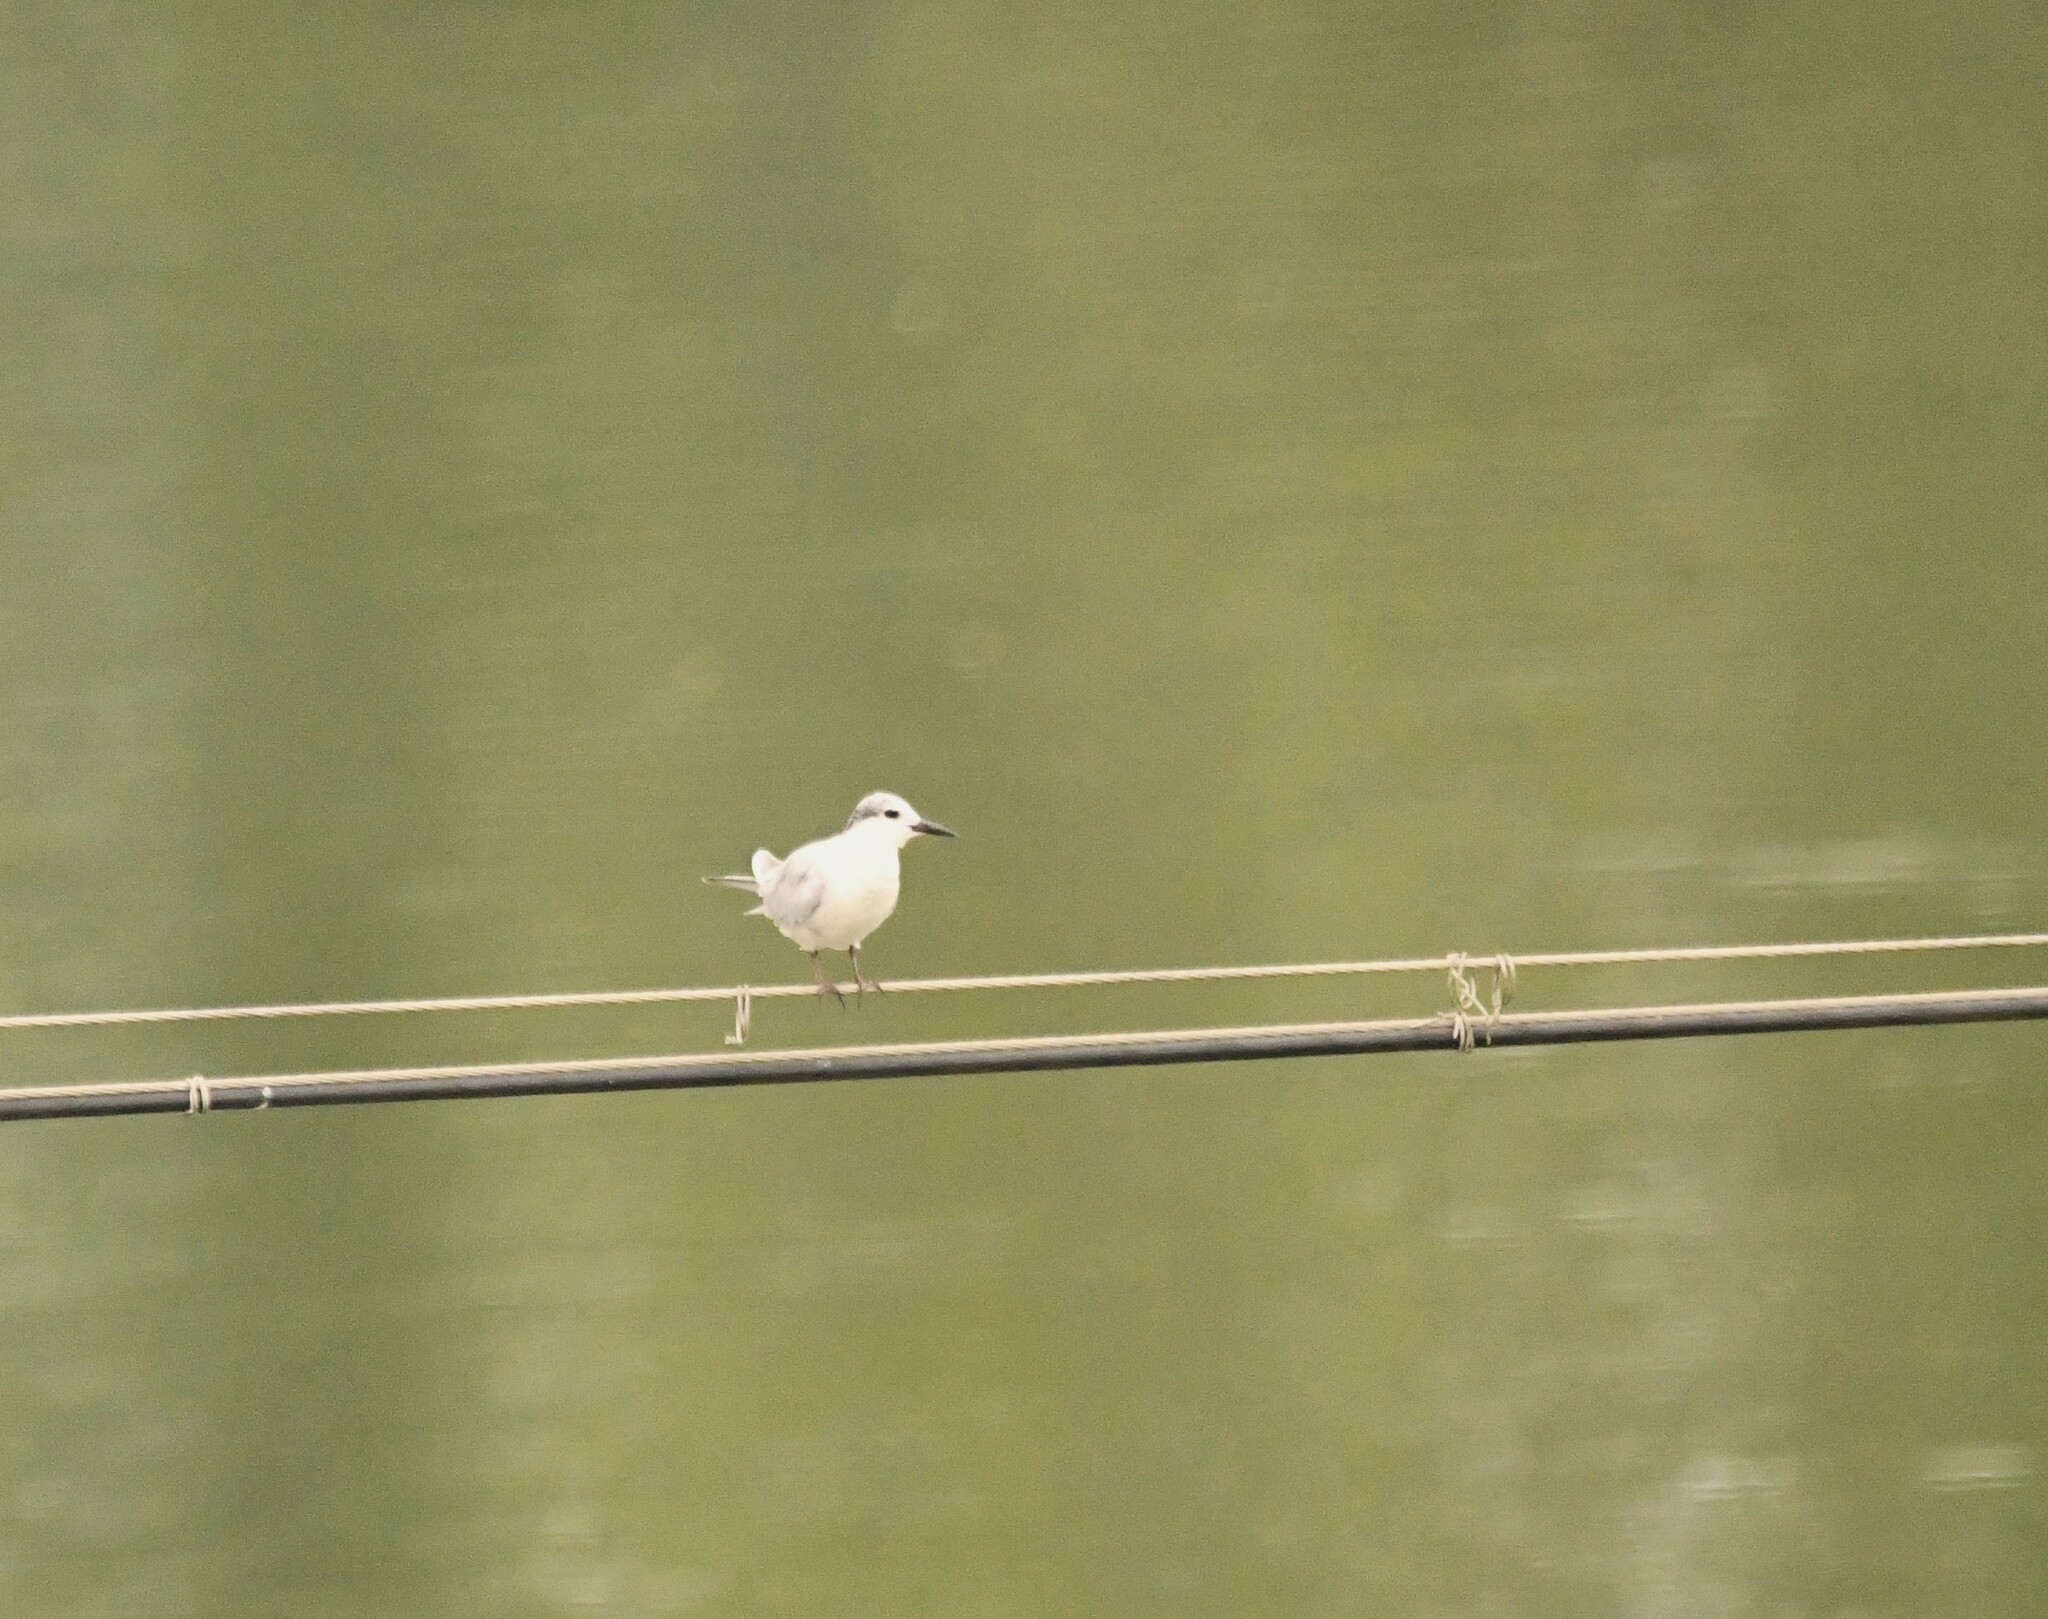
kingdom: Animalia
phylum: Chordata
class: Aves
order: Charadriiformes
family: Laridae
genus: Chlidonias
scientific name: Chlidonias hybrida
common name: Whiskered tern
